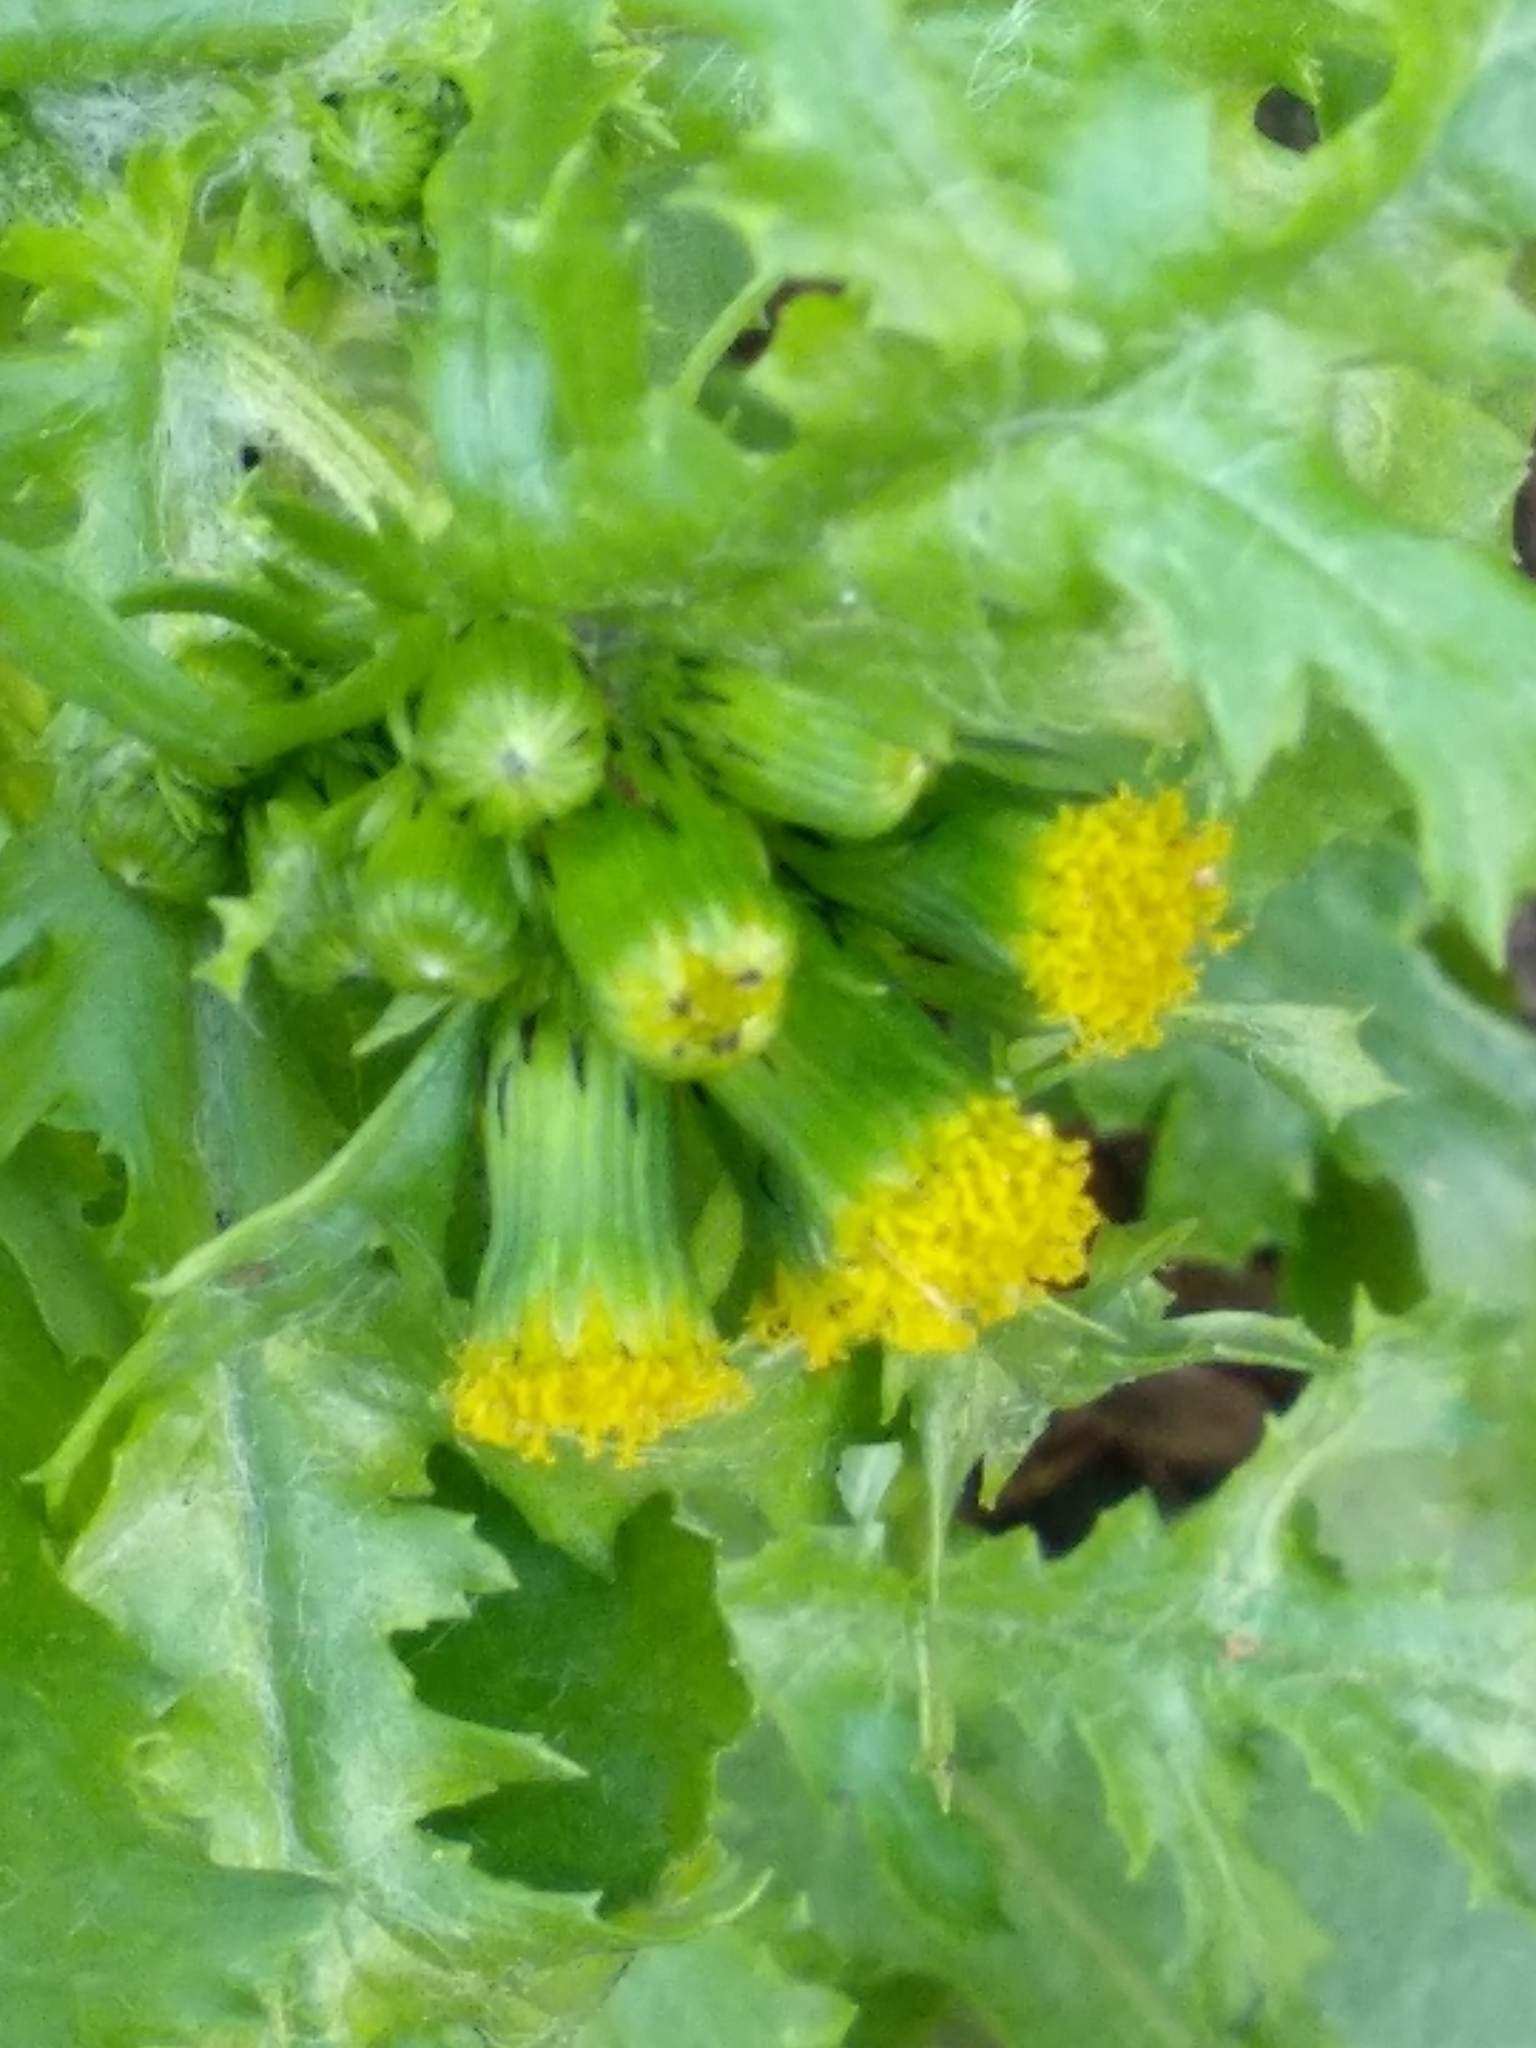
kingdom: Plantae
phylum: Tracheophyta
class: Magnoliopsida
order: Asterales
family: Asteraceae
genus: Senecio
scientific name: Senecio vulgaris
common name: Old-man-in-the-spring
